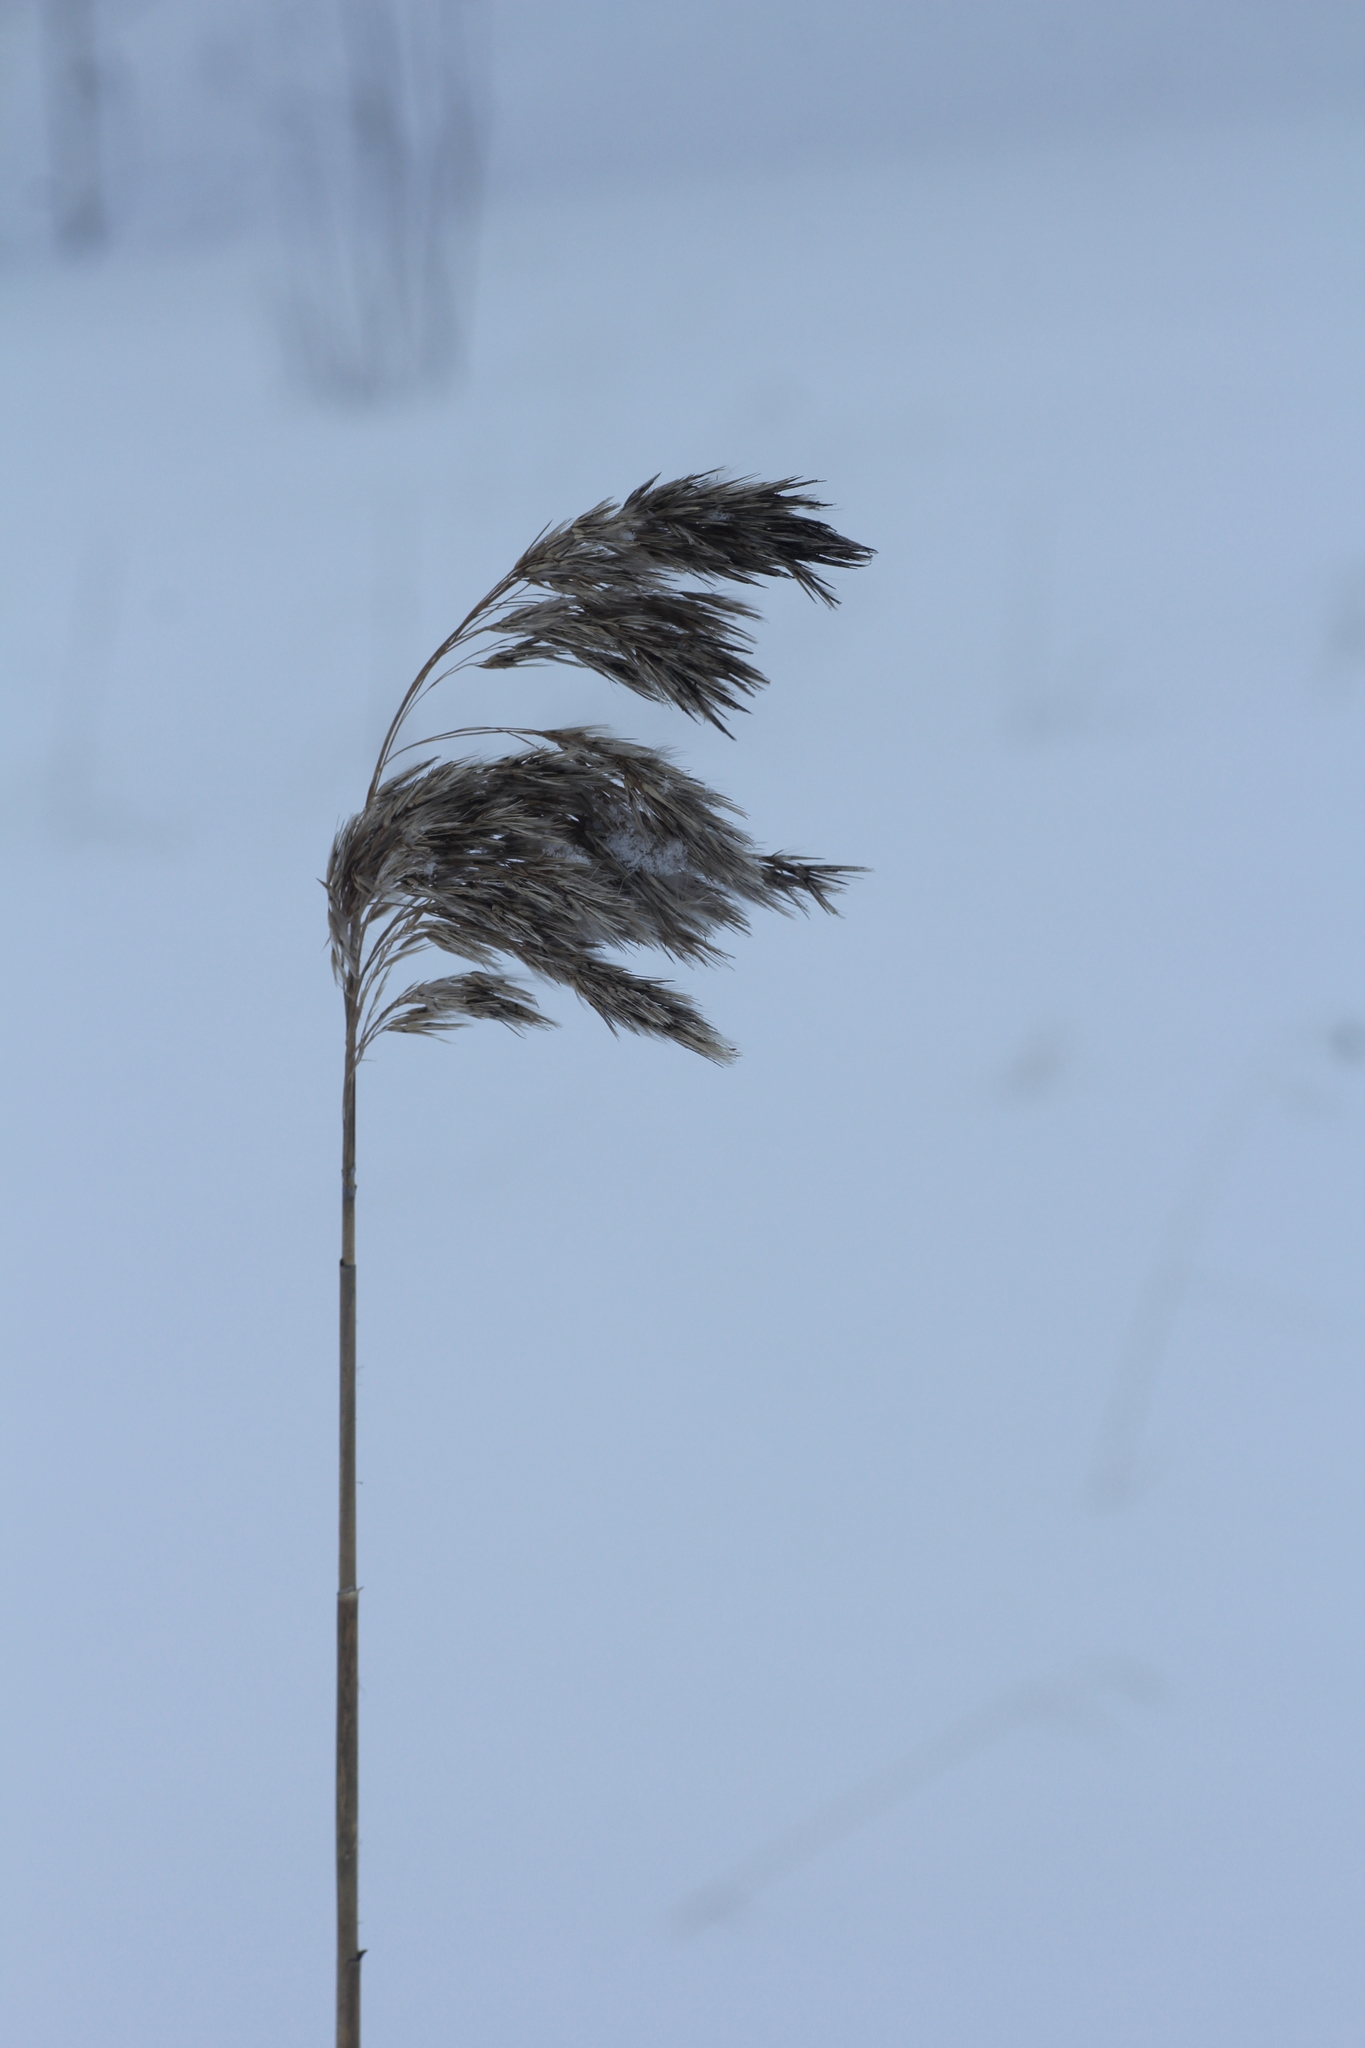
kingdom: Plantae
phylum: Tracheophyta
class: Liliopsida
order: Poales
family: Poaceae
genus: Phragmites
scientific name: Phragmites australis
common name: Common reed
